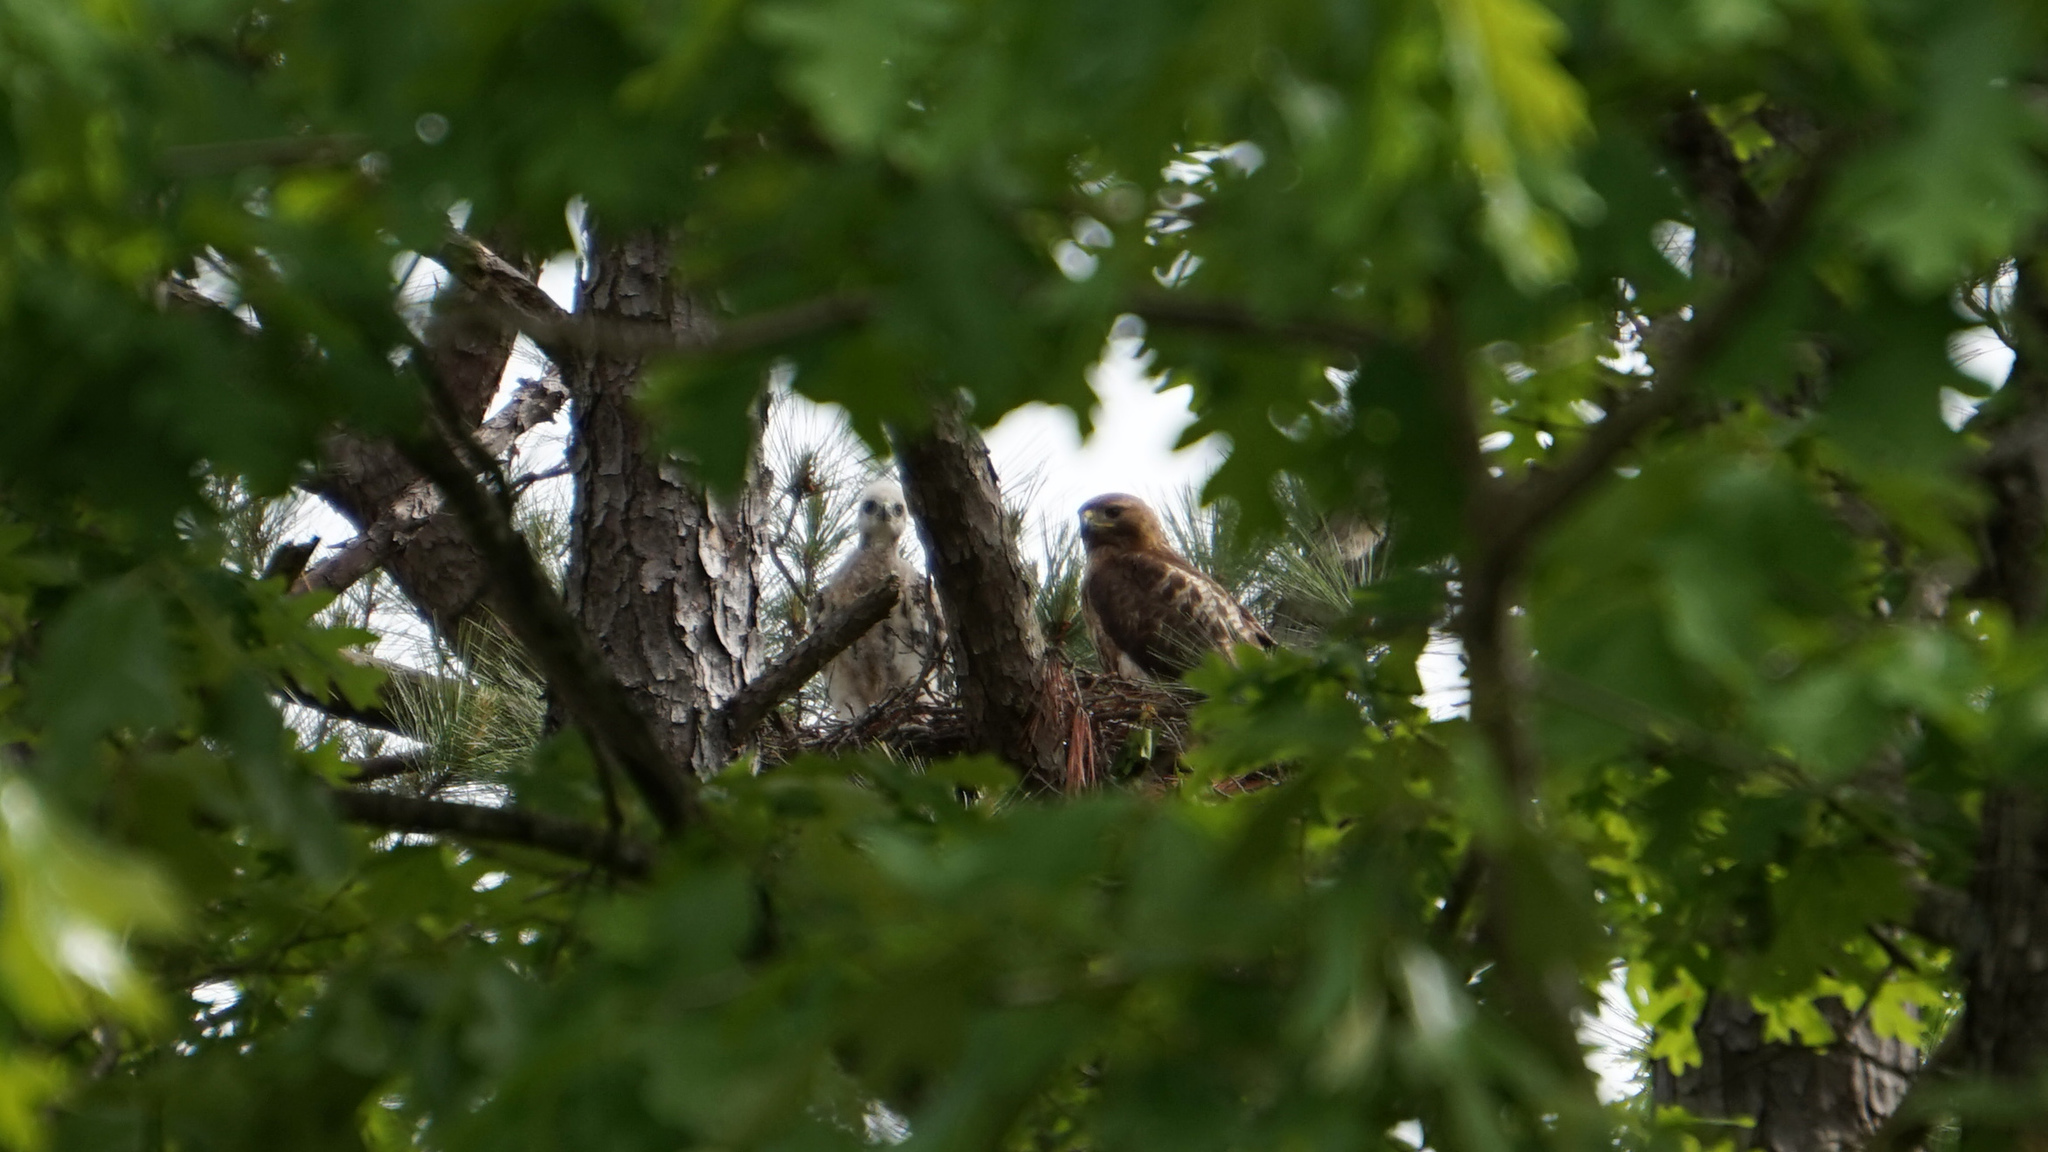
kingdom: Animalia
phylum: Chordata
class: Aves
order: Accipitriformes
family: Accipitridae
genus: Buteo
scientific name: Buteo jamaicensis
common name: Red-tailed hawk
